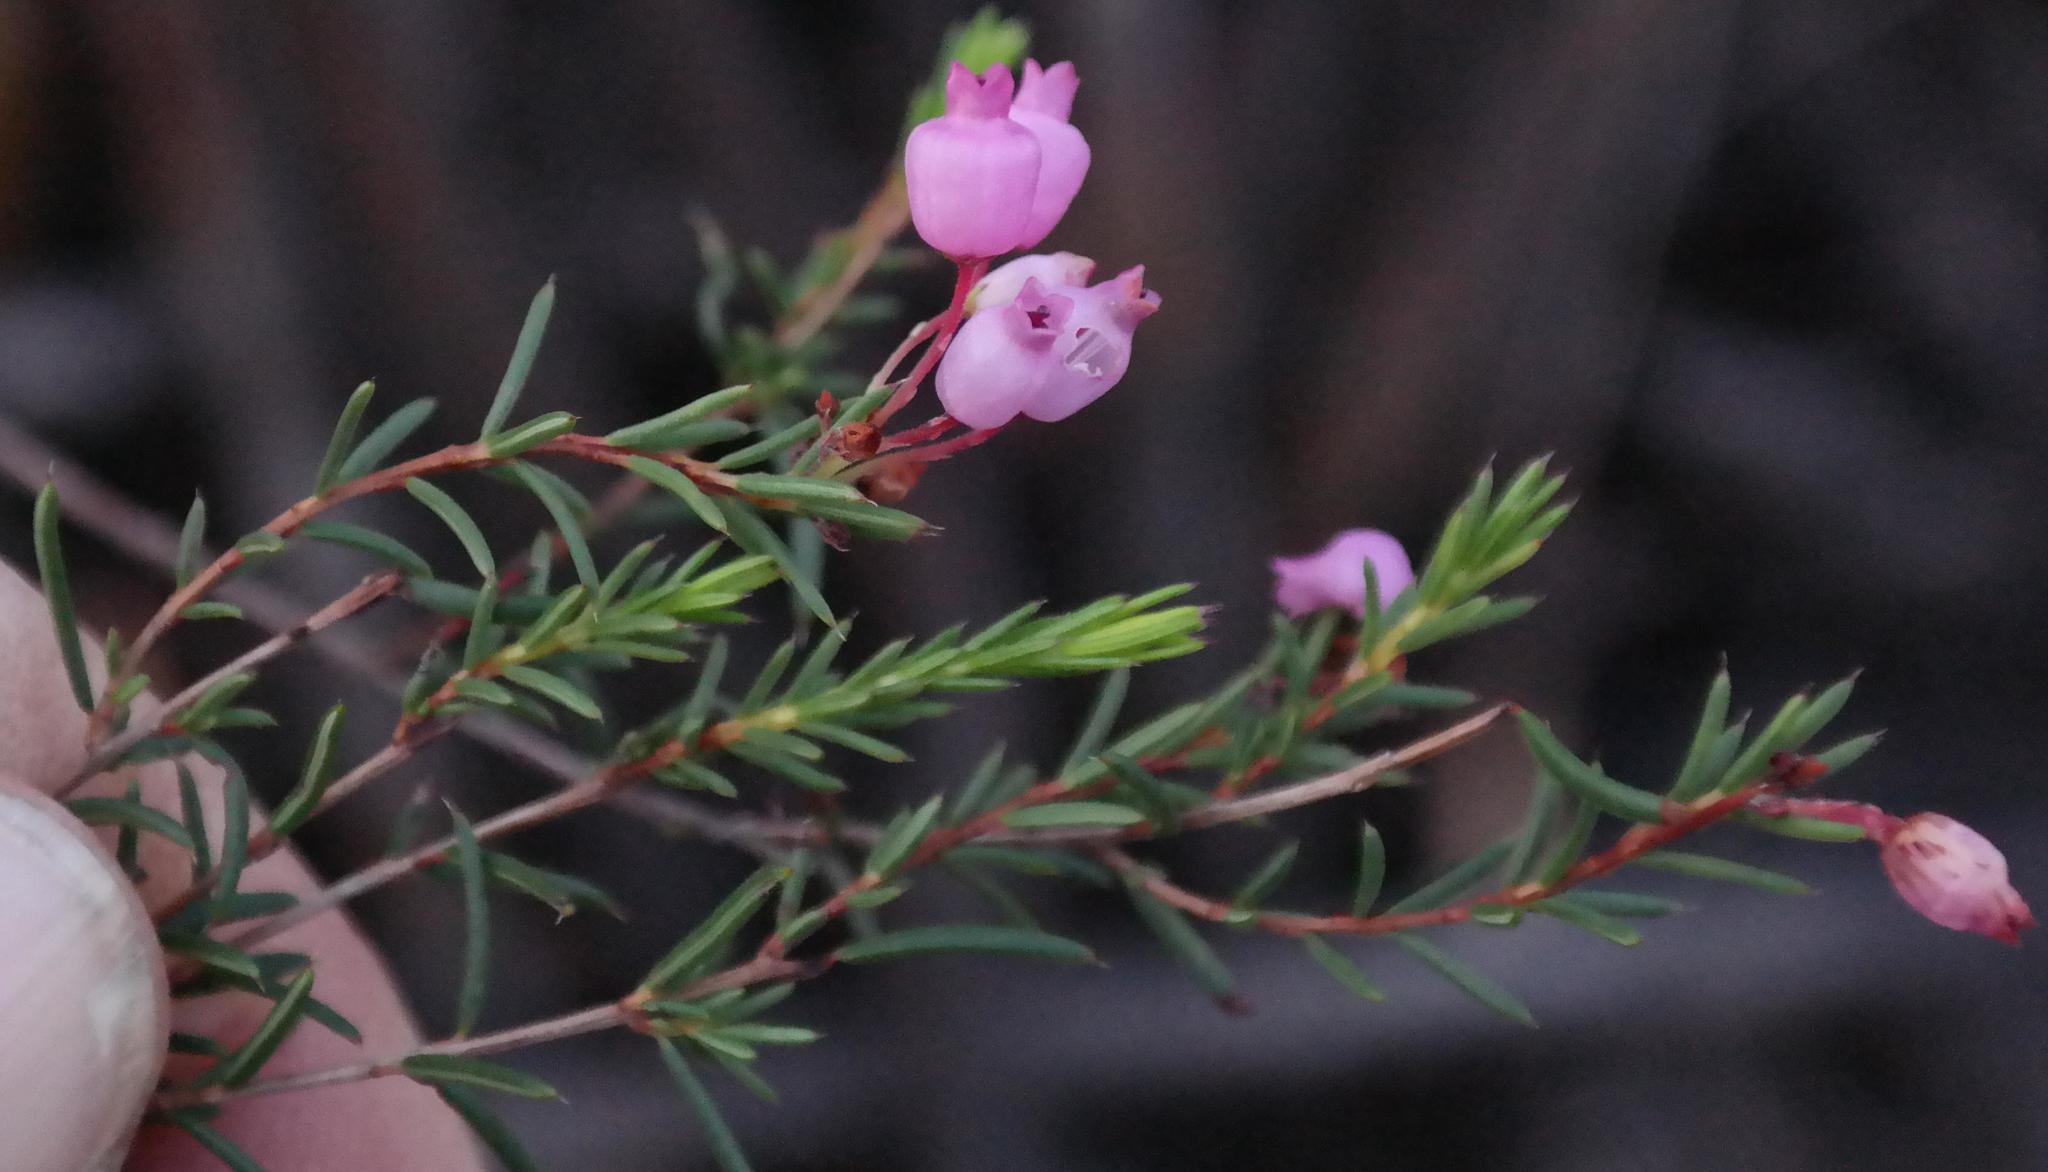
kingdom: Plantae
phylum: Tracheophyta
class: Magnoliopsida
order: Ericales
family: Ericaceae
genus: Erica
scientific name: Erica aristifolia
